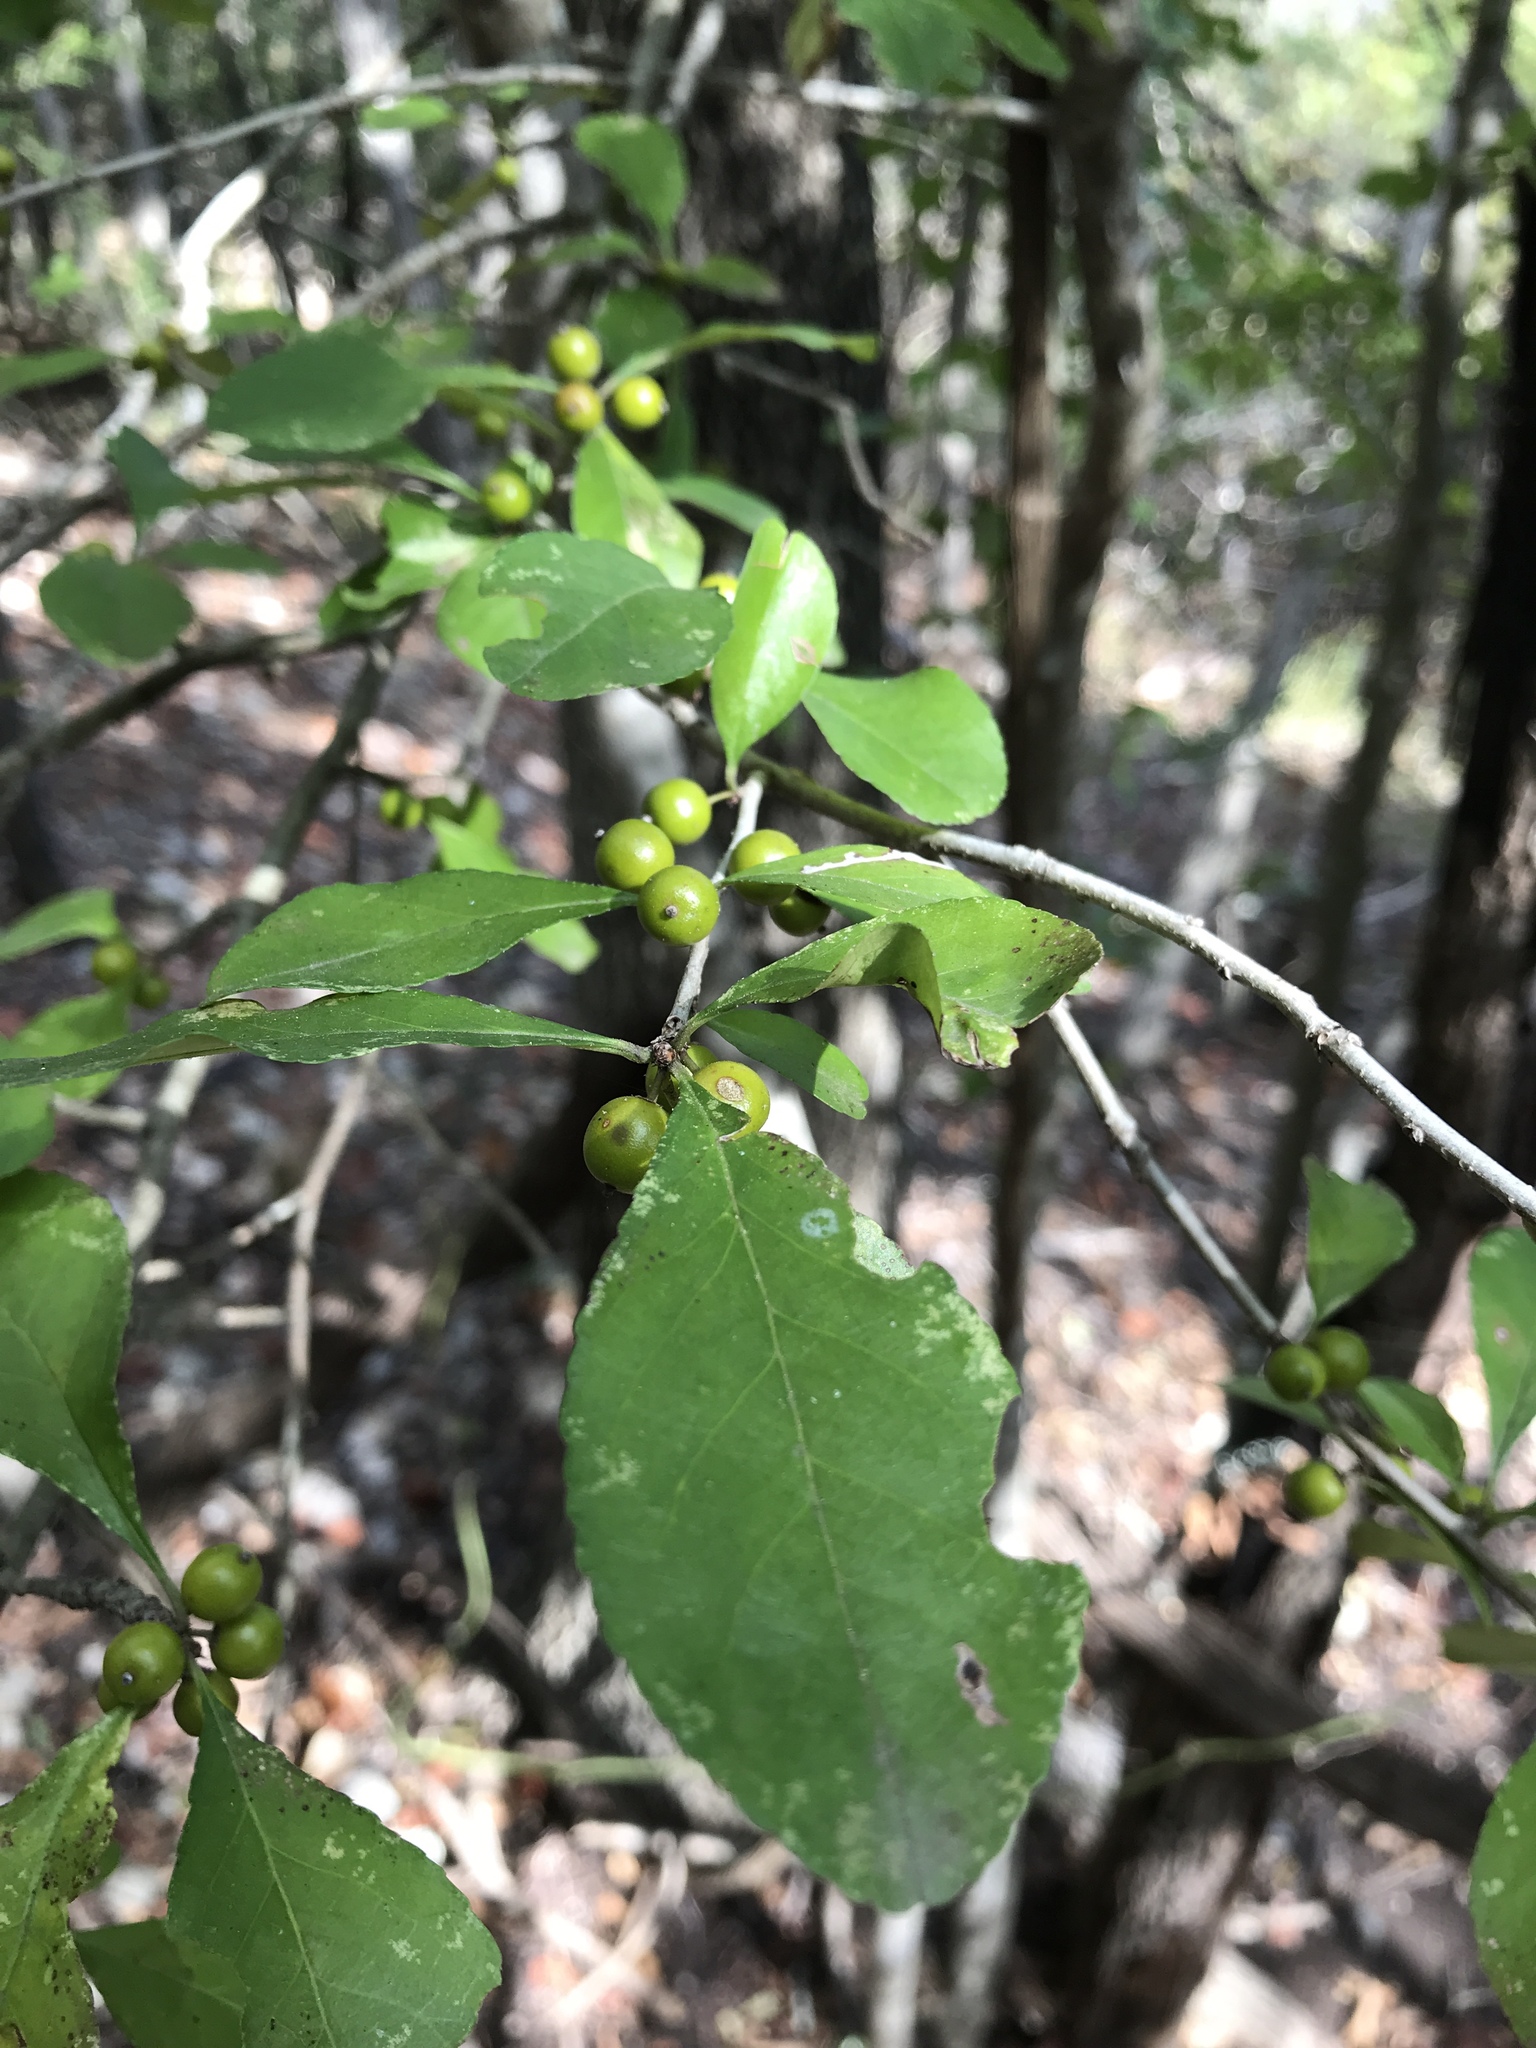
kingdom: Plantae
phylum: Tracheophyta
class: Magnoliopsida
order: Aquifoliales
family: Aquifoliaceae
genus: Ilex
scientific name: Ilex decidua
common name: Possum-haw
